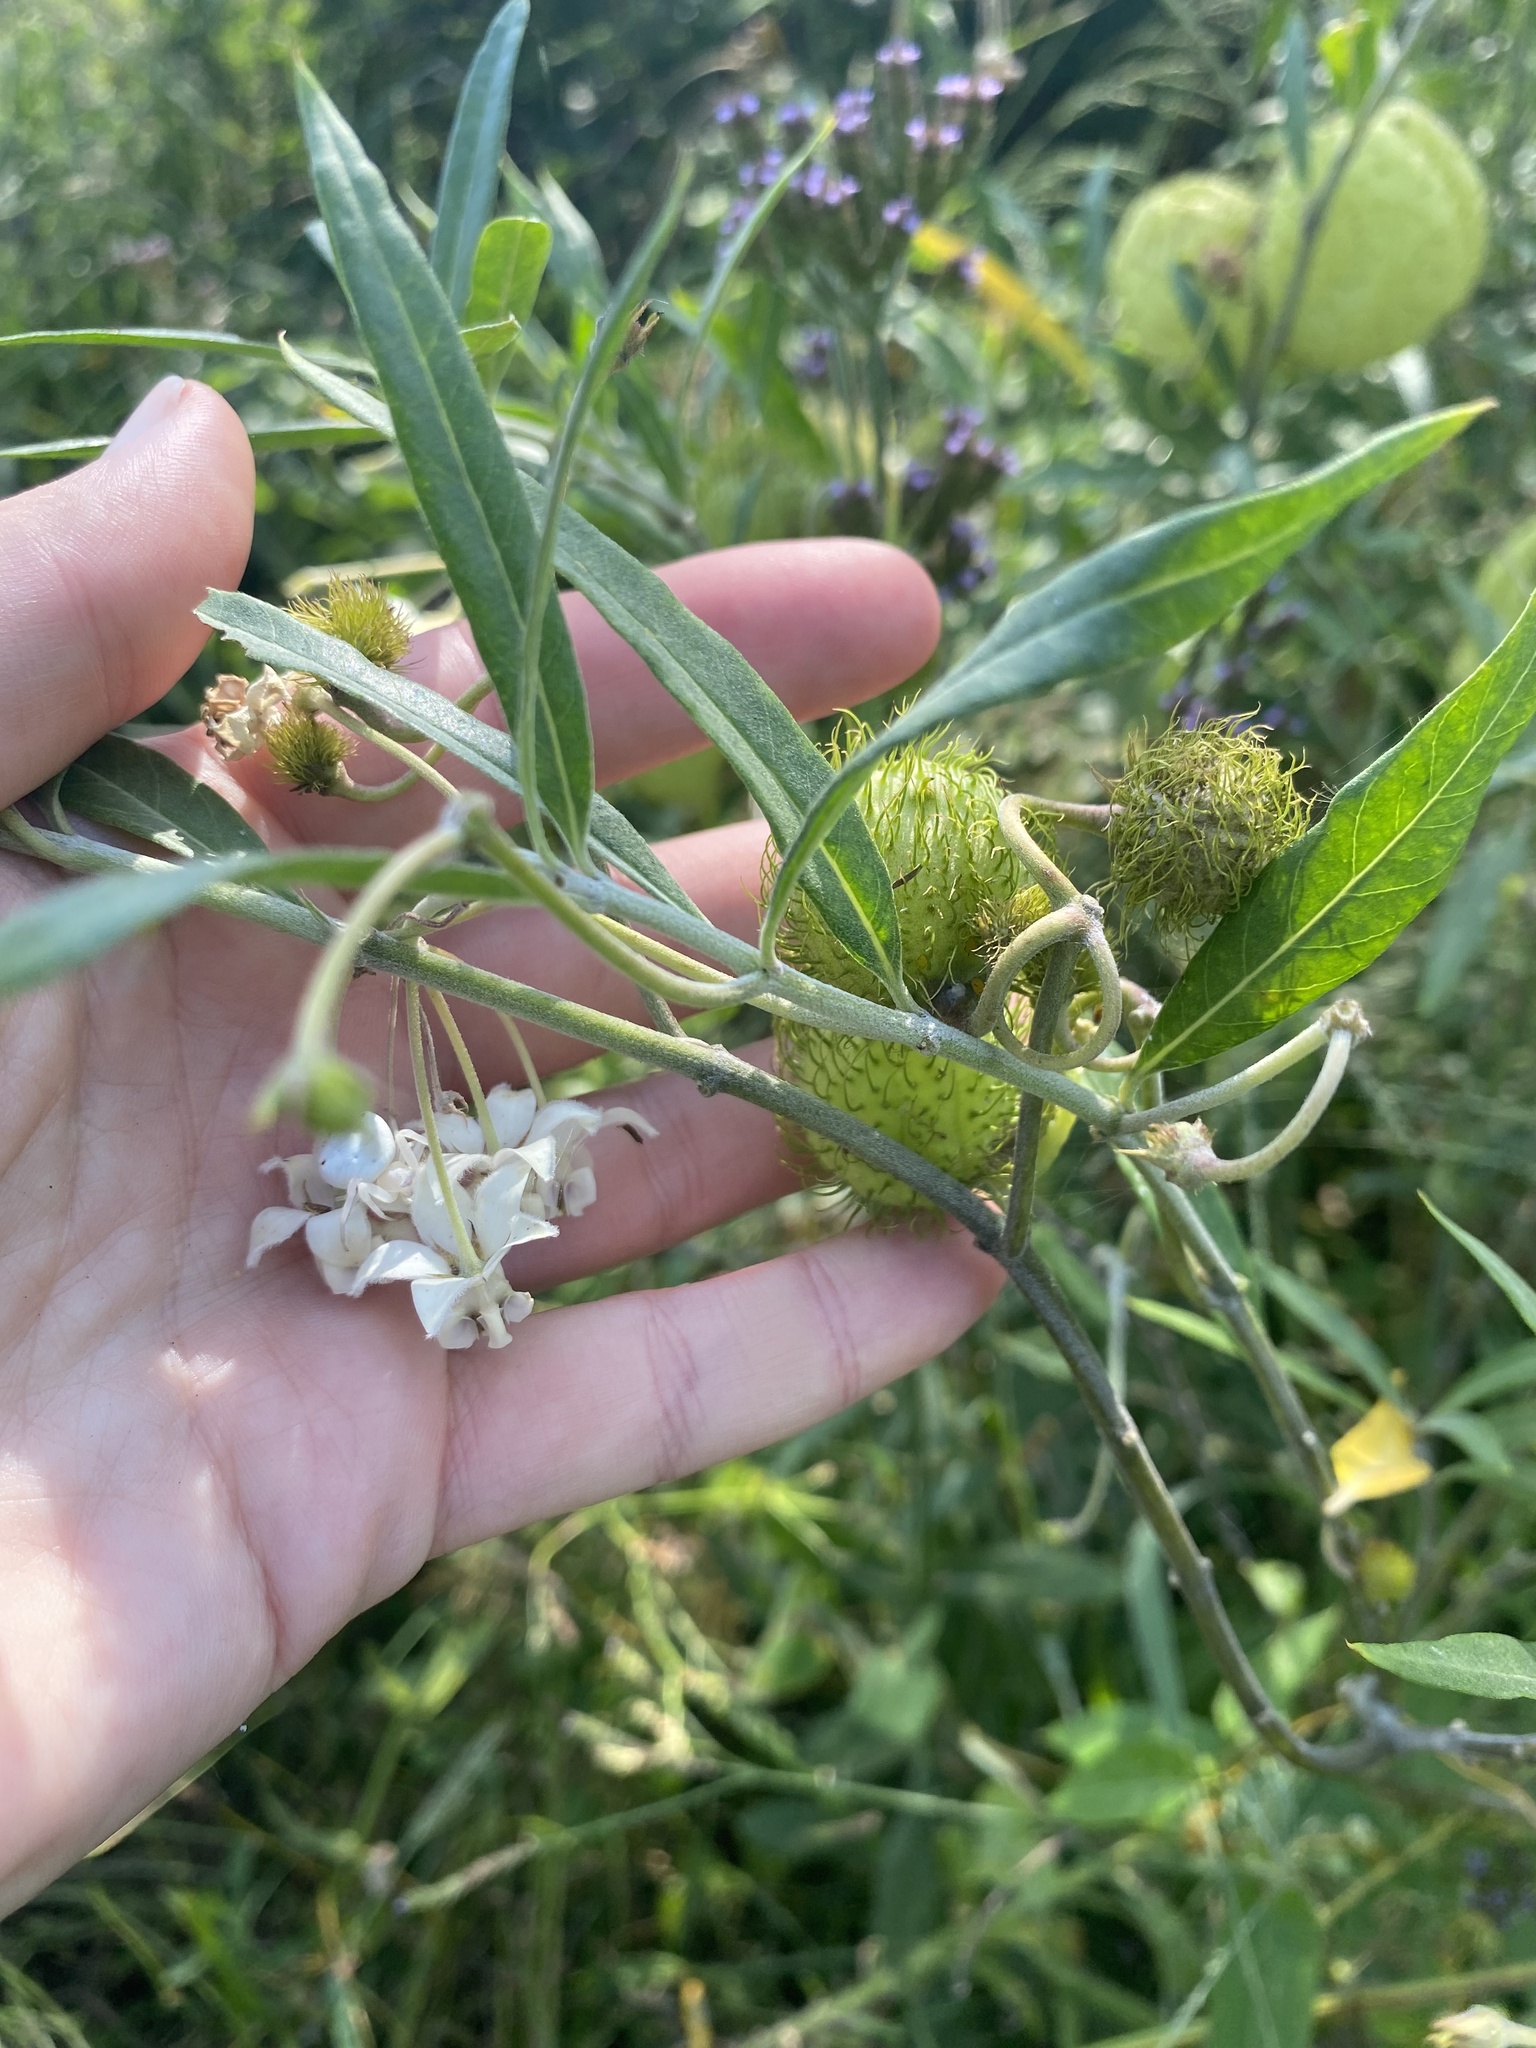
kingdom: Plantae
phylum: Tracheophyta
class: Magnoliopsida
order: Gentianales
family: Apocynaceae
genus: Gomphocarpus
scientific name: Gomphocarpus physocarpus
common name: Balloon cotton bush
